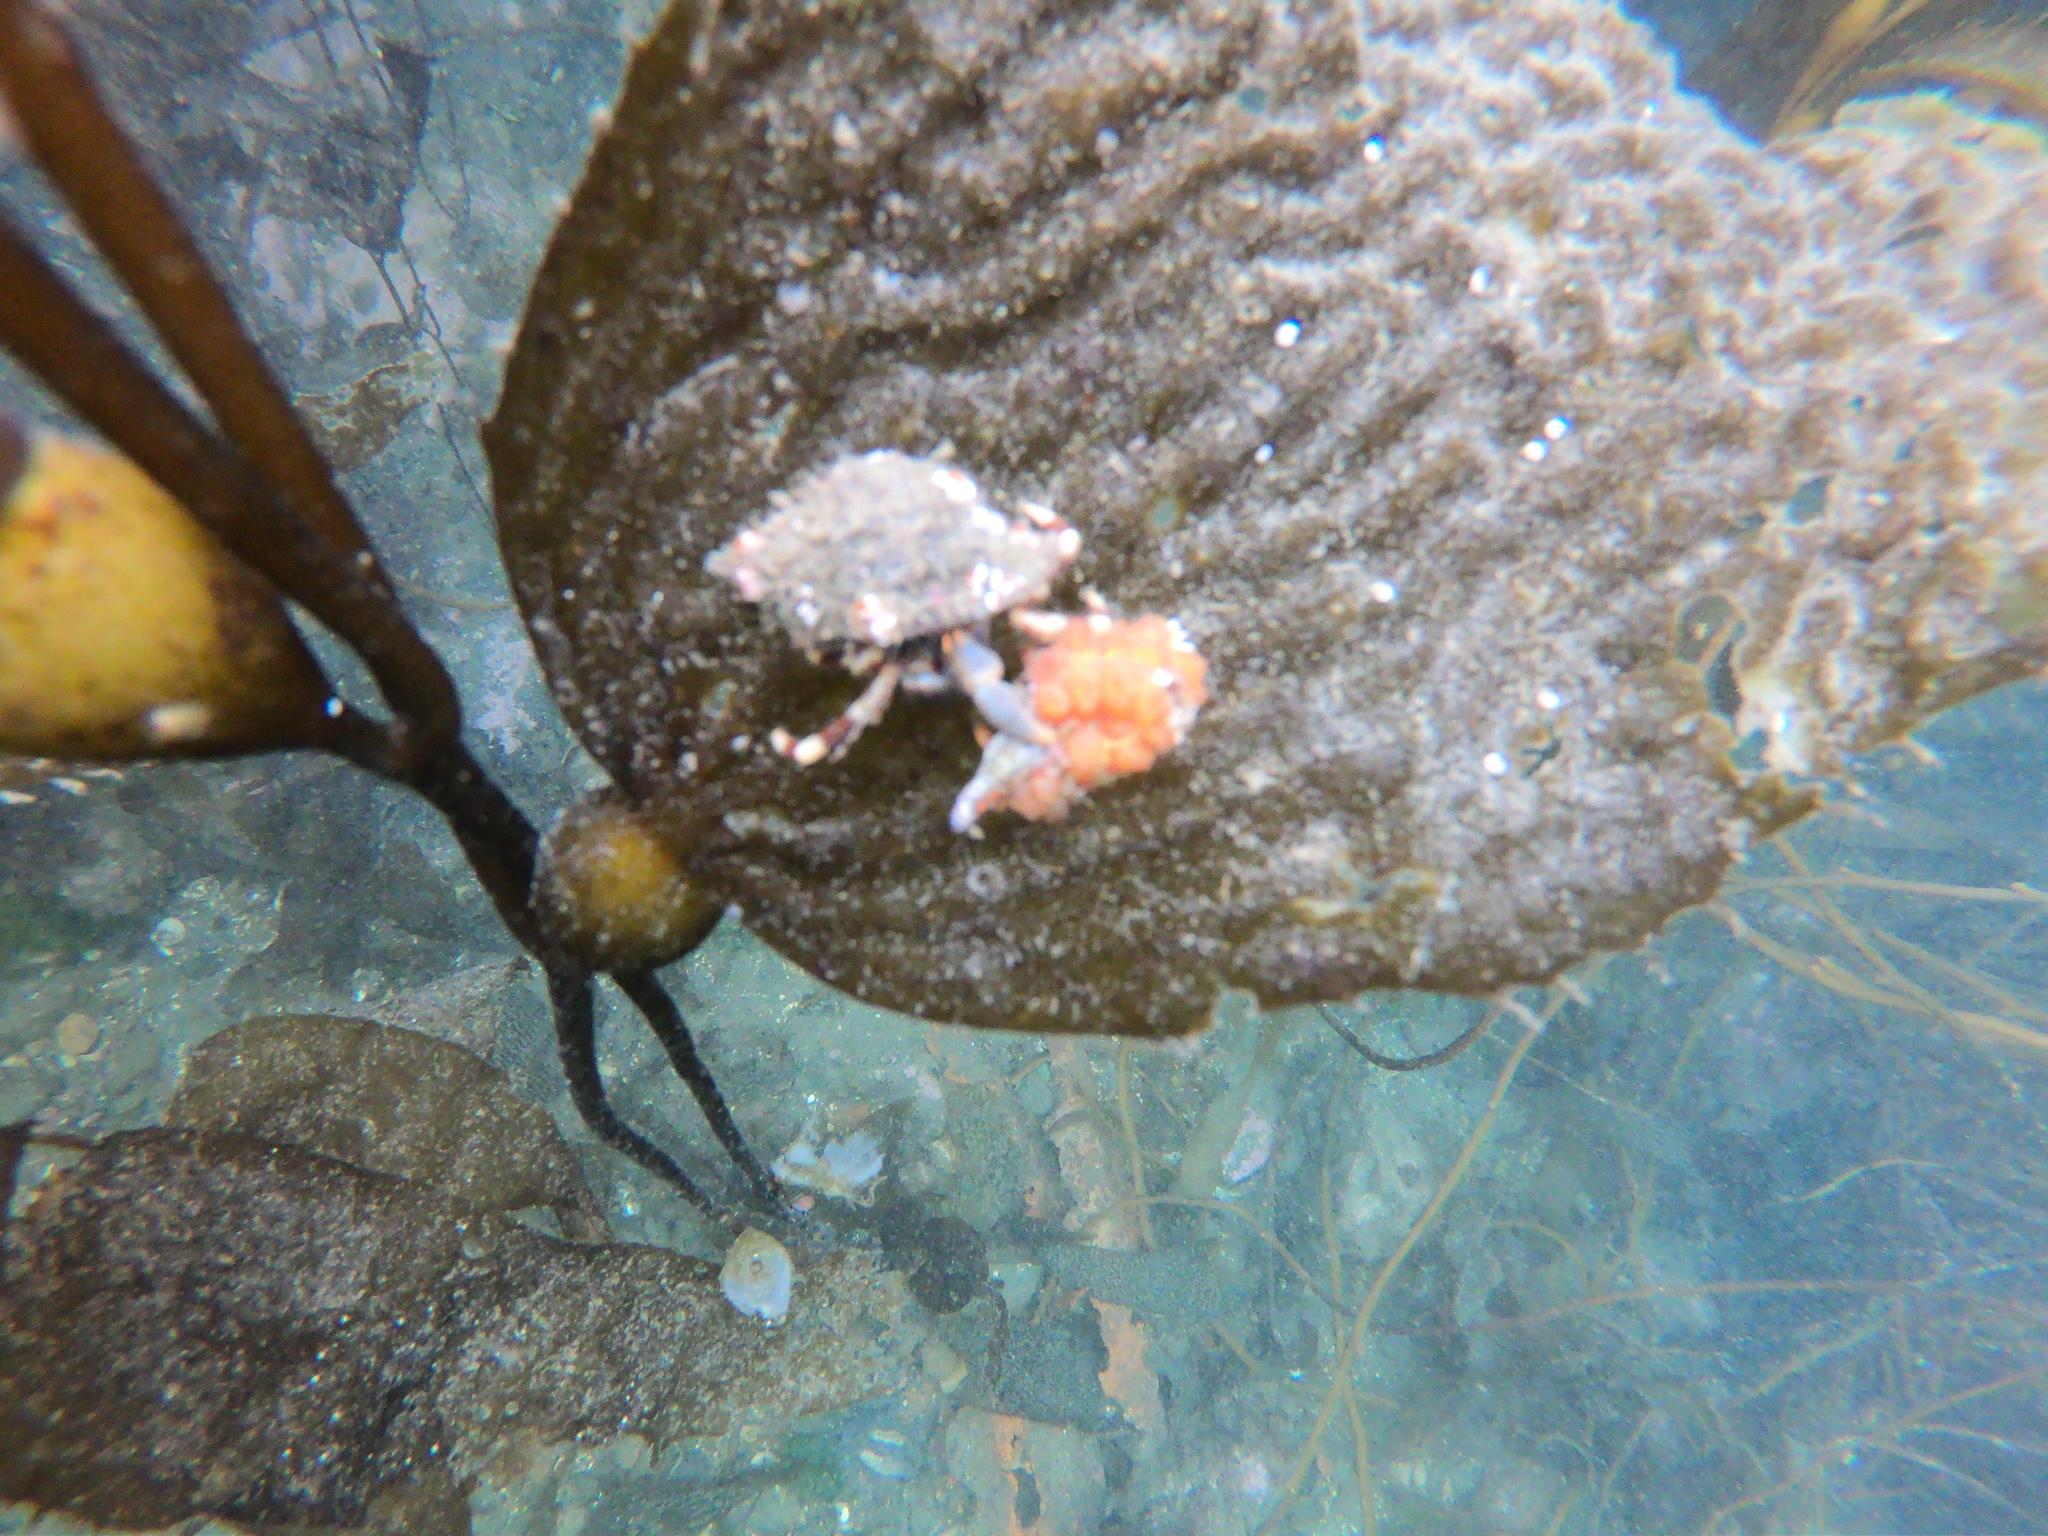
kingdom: Animalia
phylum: Arthropoda
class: Malacostraca
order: Decapoda
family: Paguridae
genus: Pagurus
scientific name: Pagurus comptus
